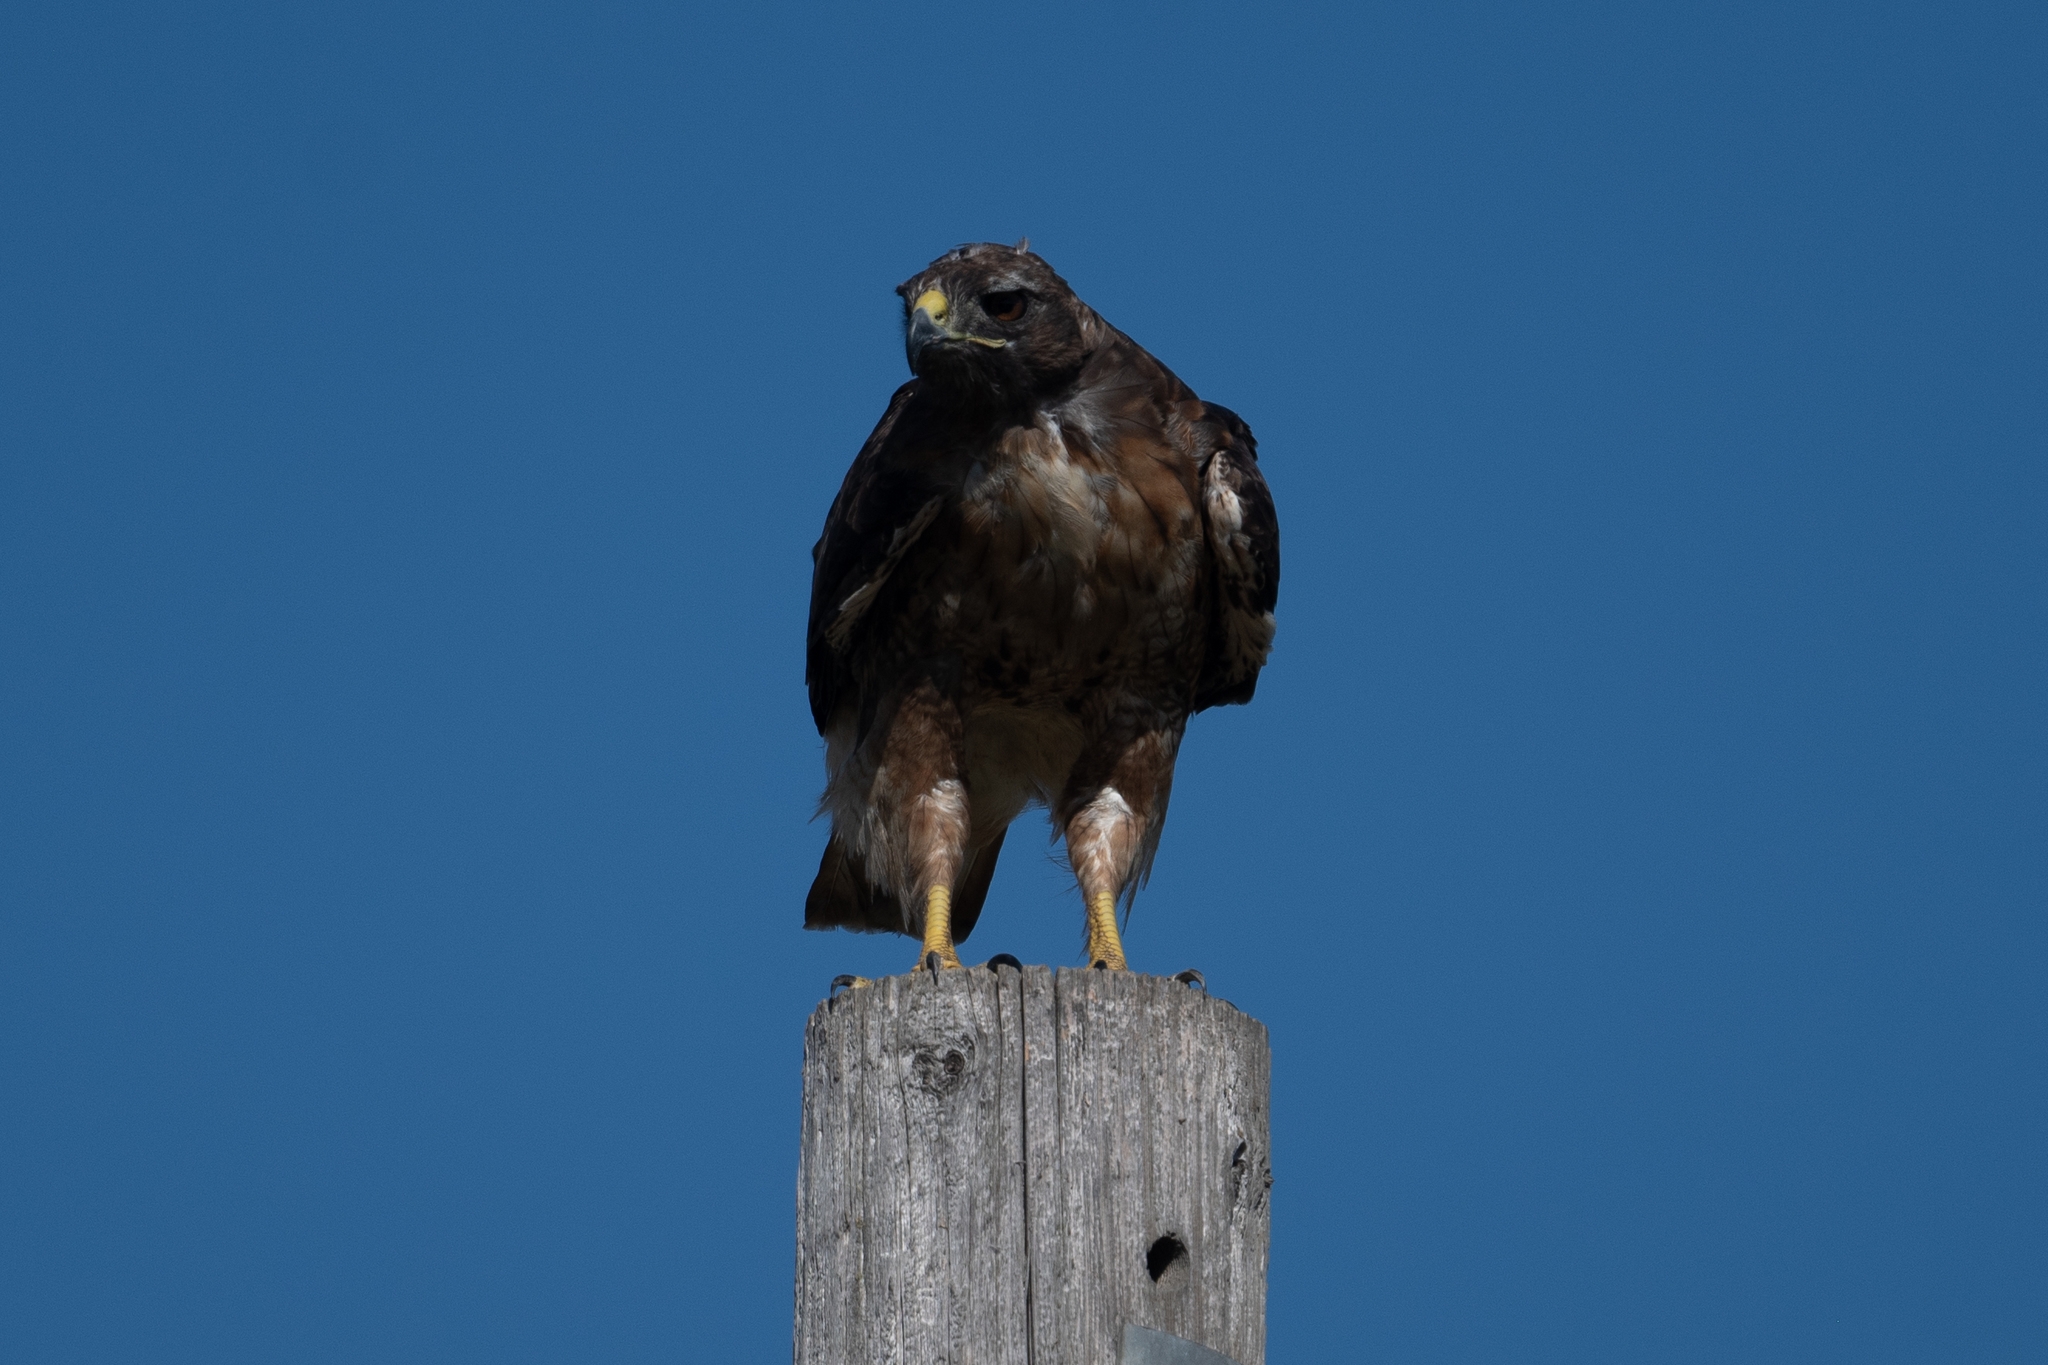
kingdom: Animalia
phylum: Chordata
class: Aves
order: Accipitriformes
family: Accipitridae
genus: Buteo
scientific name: Buteo jamaicensis
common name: Red-tailed hawk
